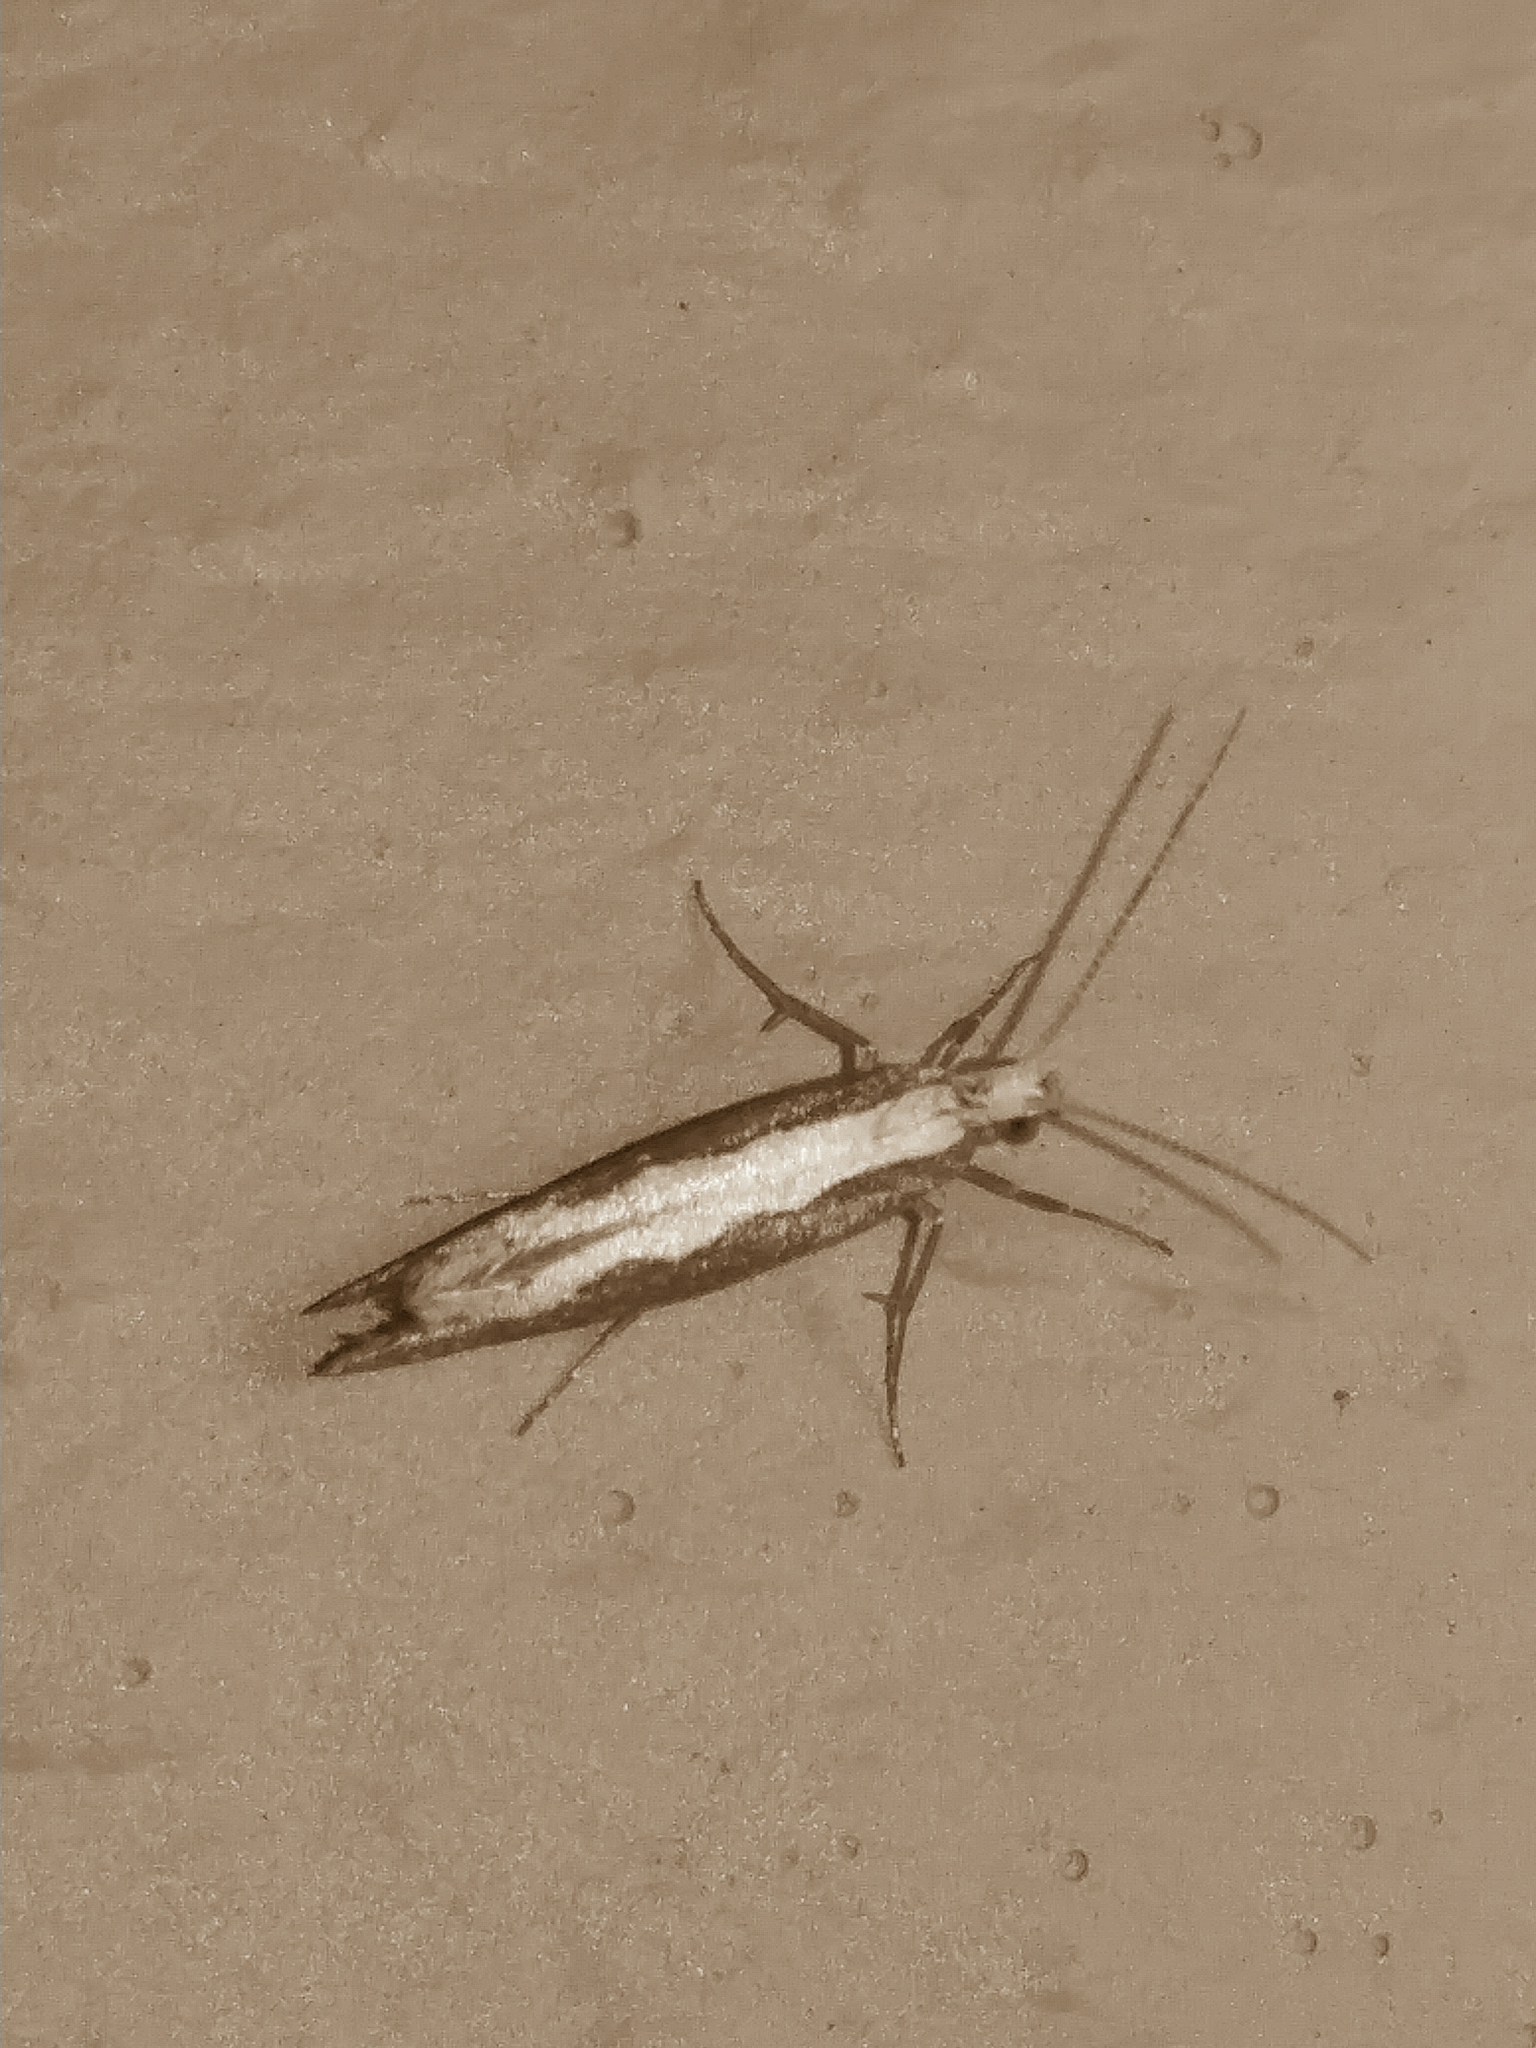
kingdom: Animalia
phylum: Arthropoda
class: Insecta
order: Lepidoptera
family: Plutellidae
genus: Plutella
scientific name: Plutella xylostella
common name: Diamond-back moth
